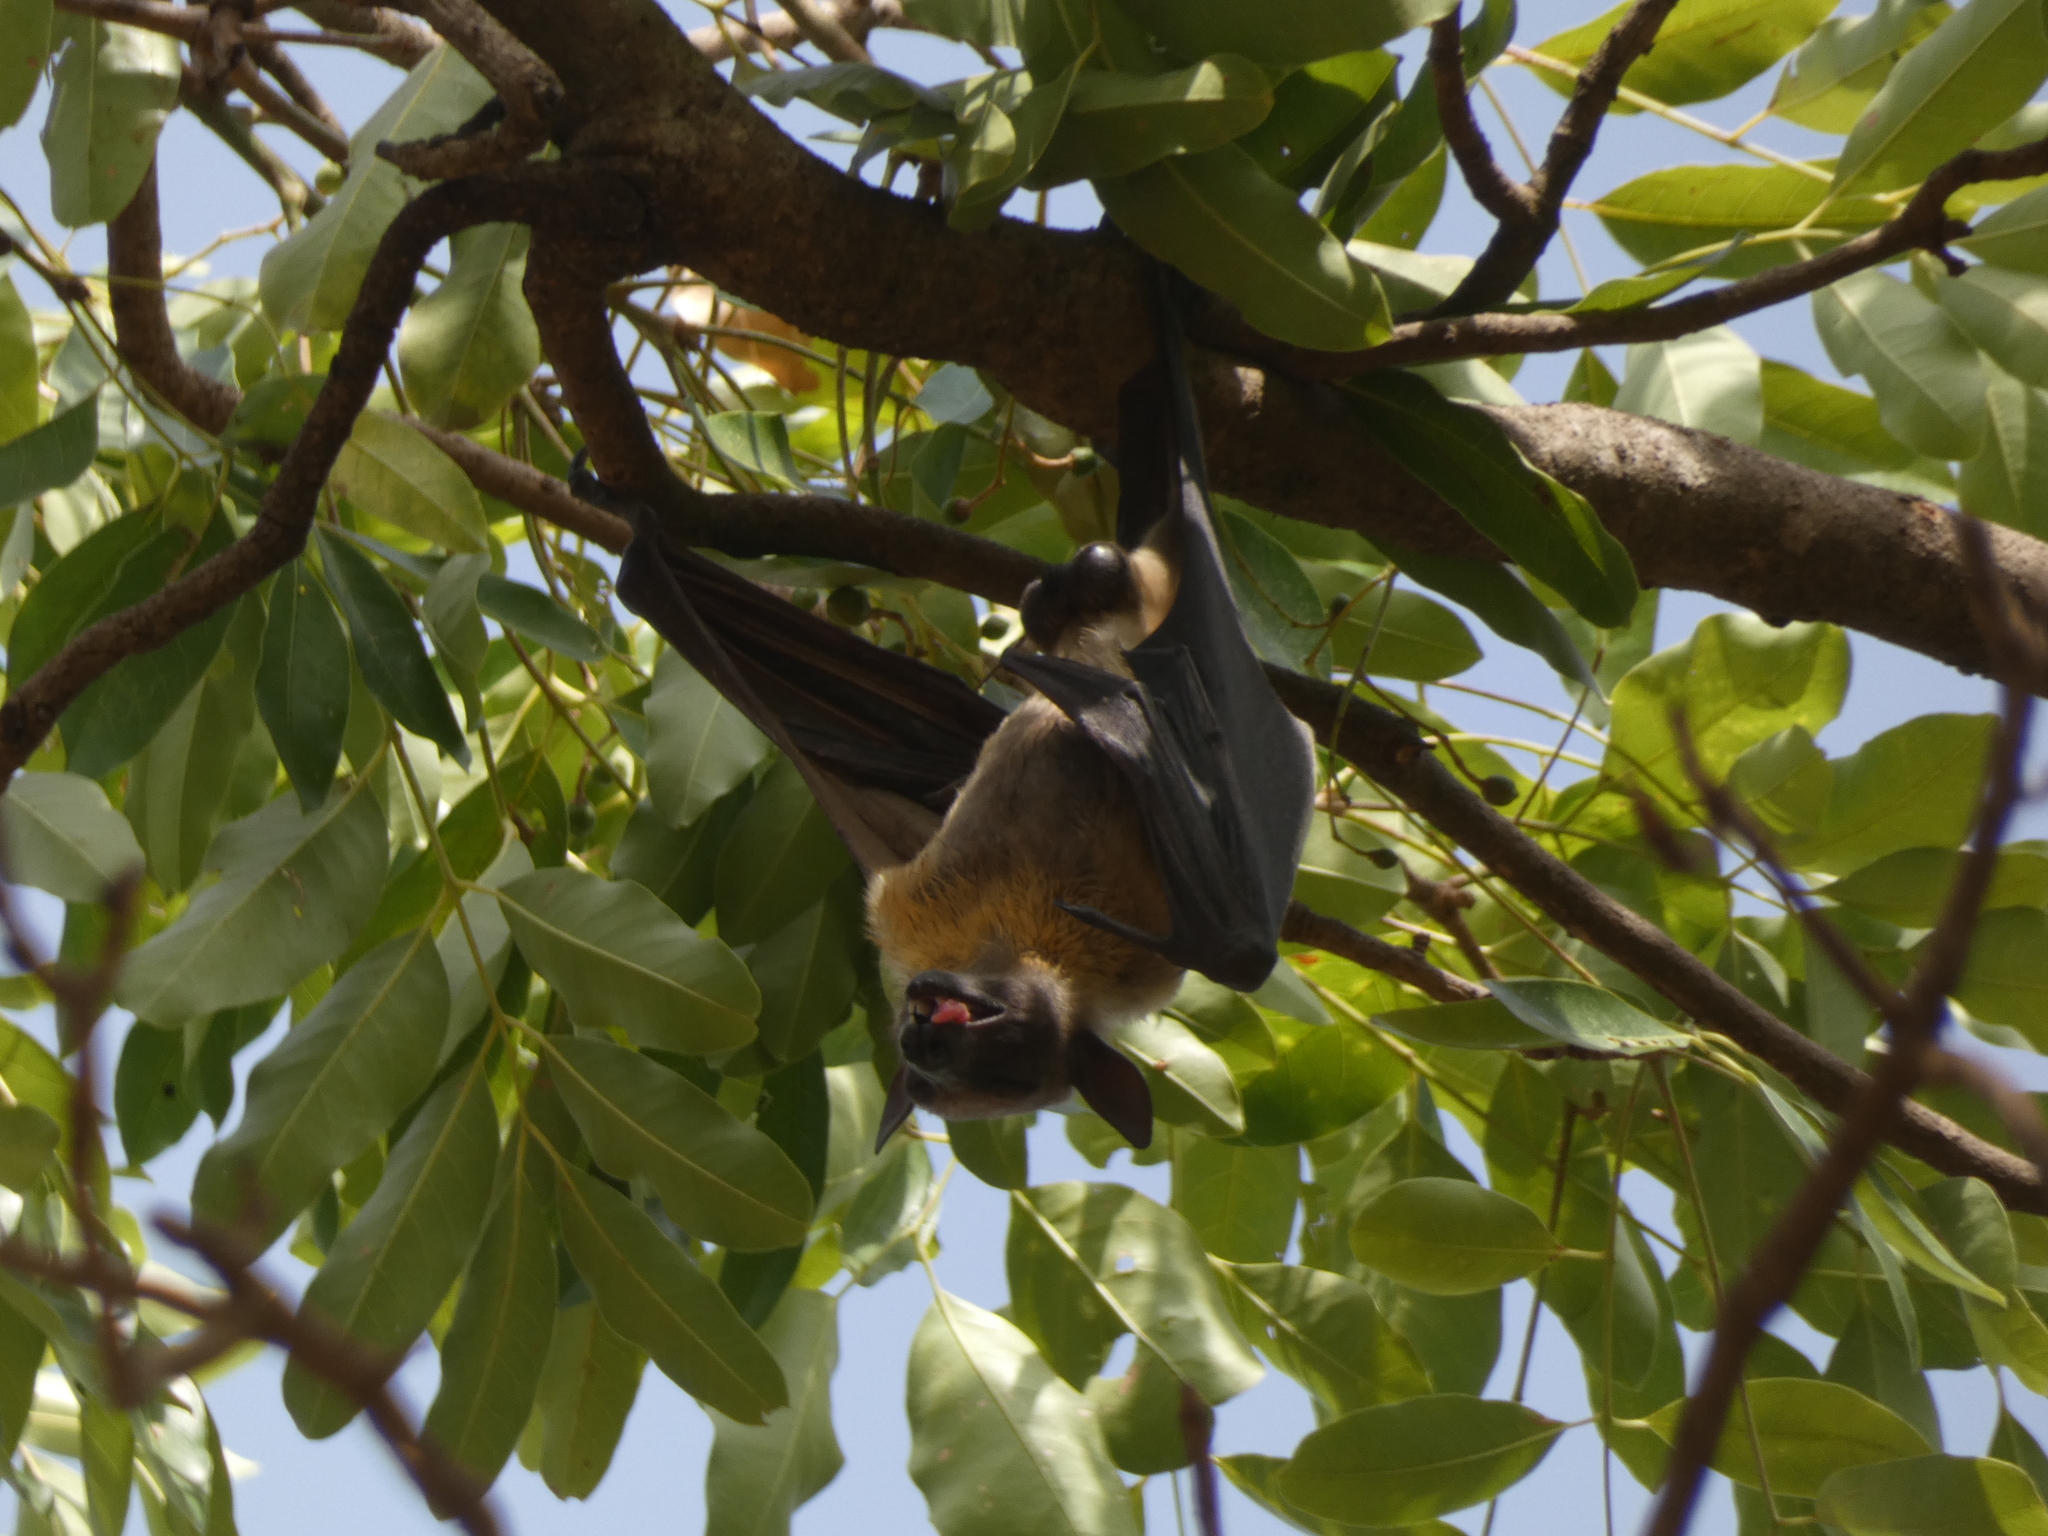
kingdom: Animalia
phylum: Chordata
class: Mammalia
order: Chiroptera
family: Pteropodidae
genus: Eidolon
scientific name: Eidolon helvum
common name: Straw-colored fruit bat
